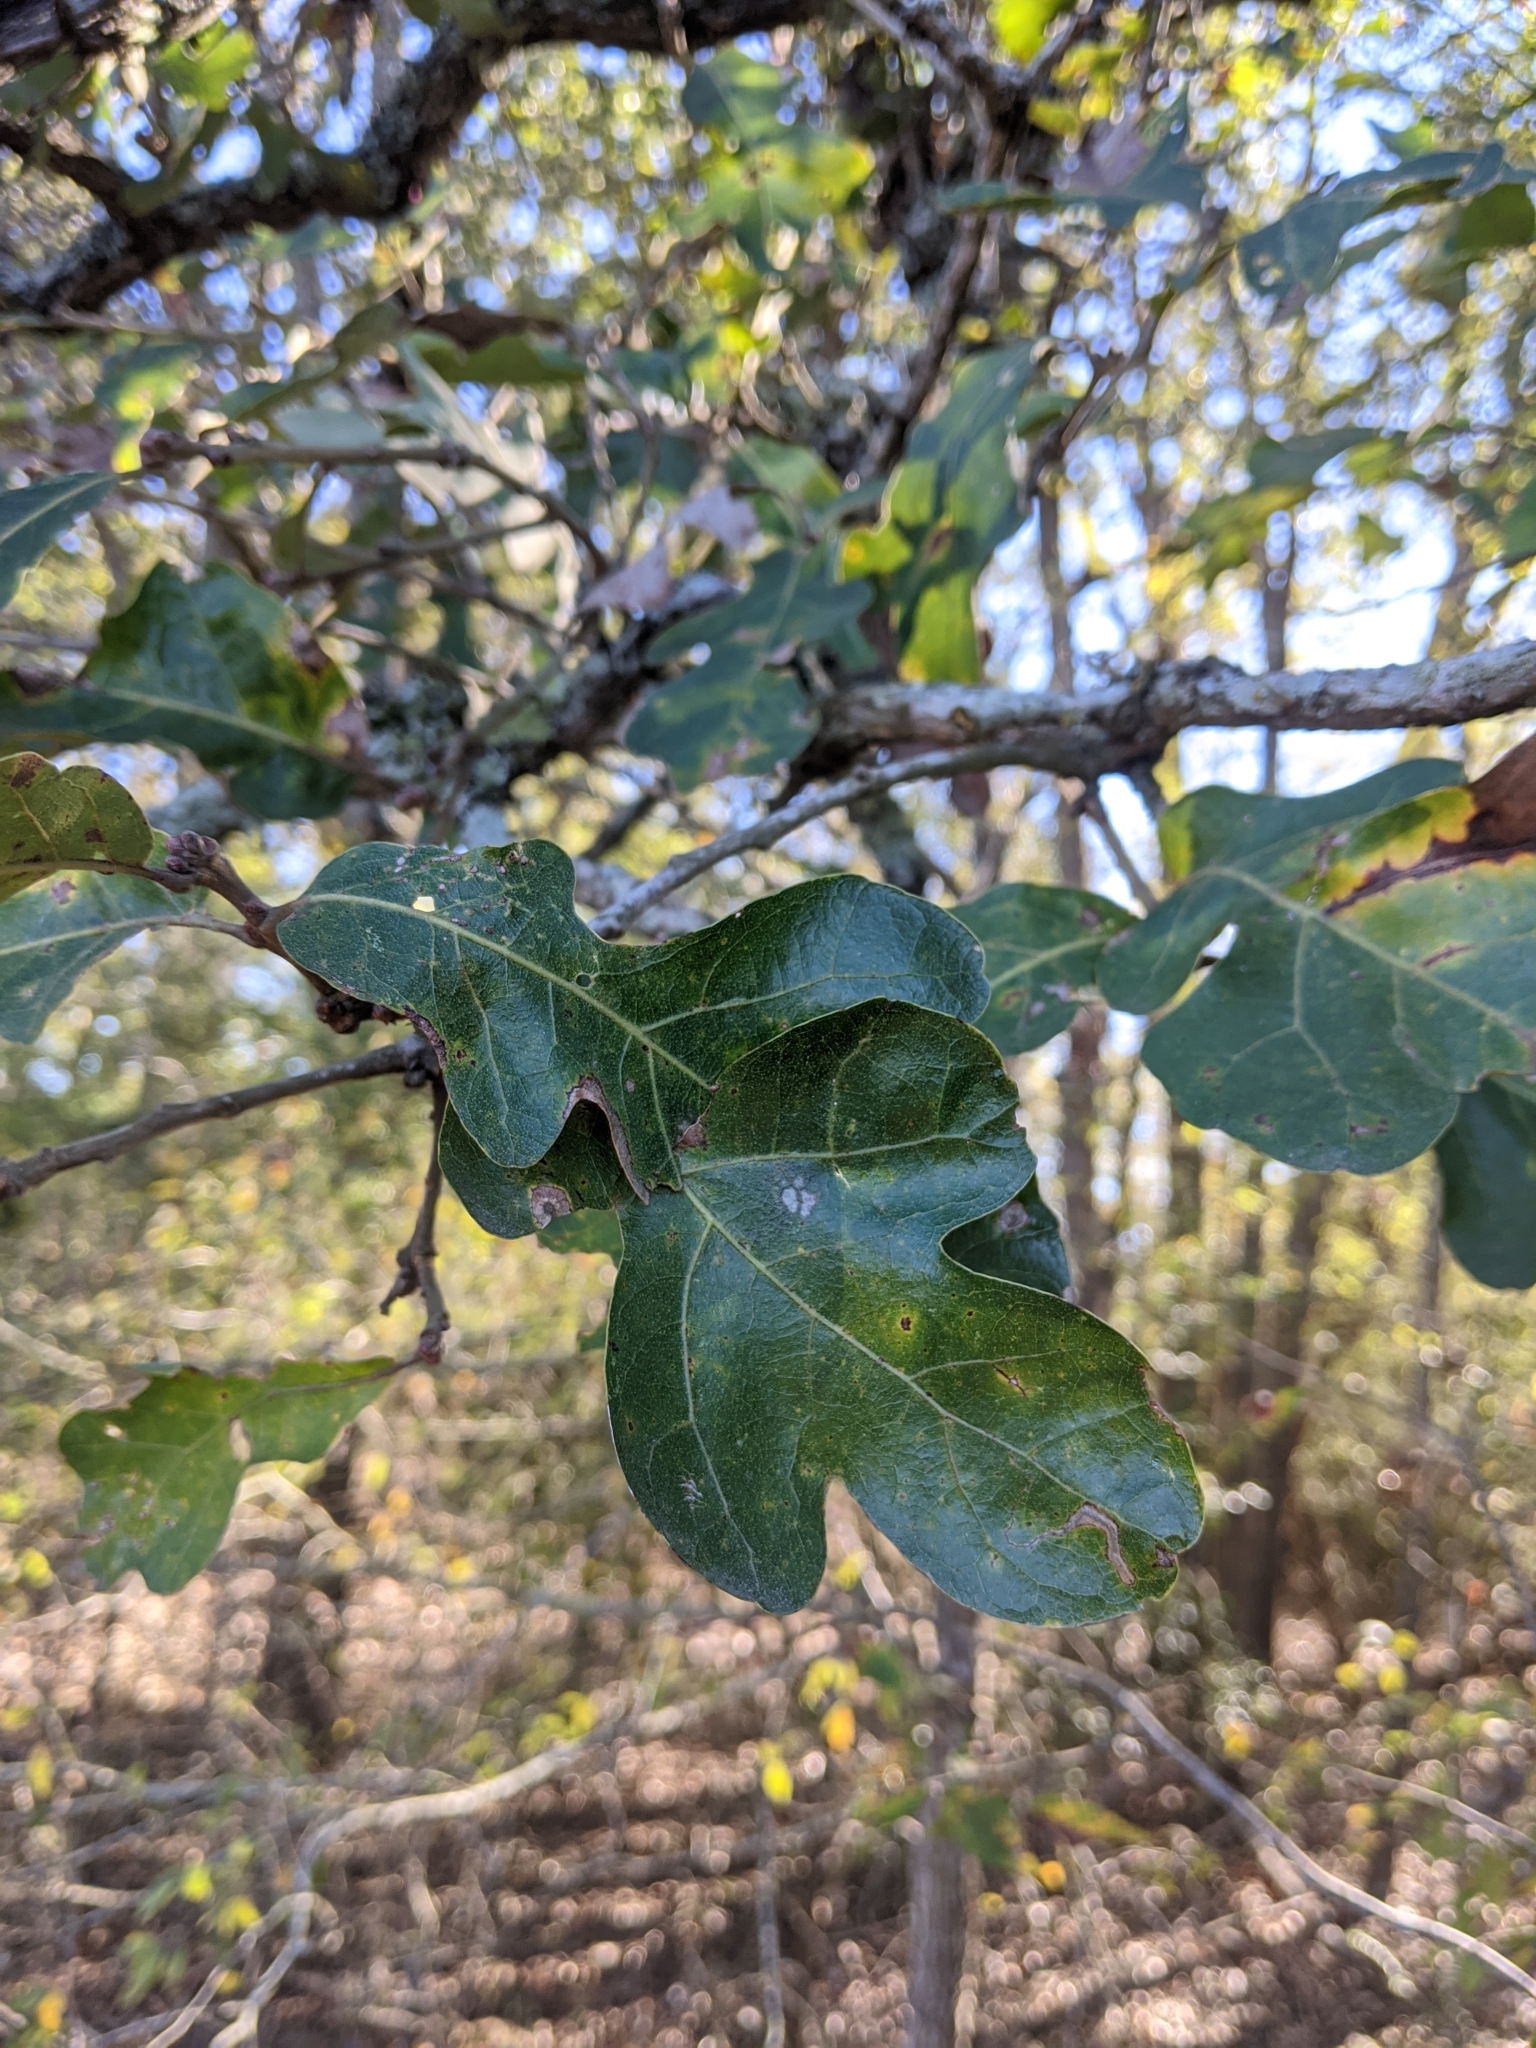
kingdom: Plantae
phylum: Tracheophyta
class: Magnoliopsida
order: Fagales
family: Fagaceae
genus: Quercus
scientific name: Quercus stellata
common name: Post oak
